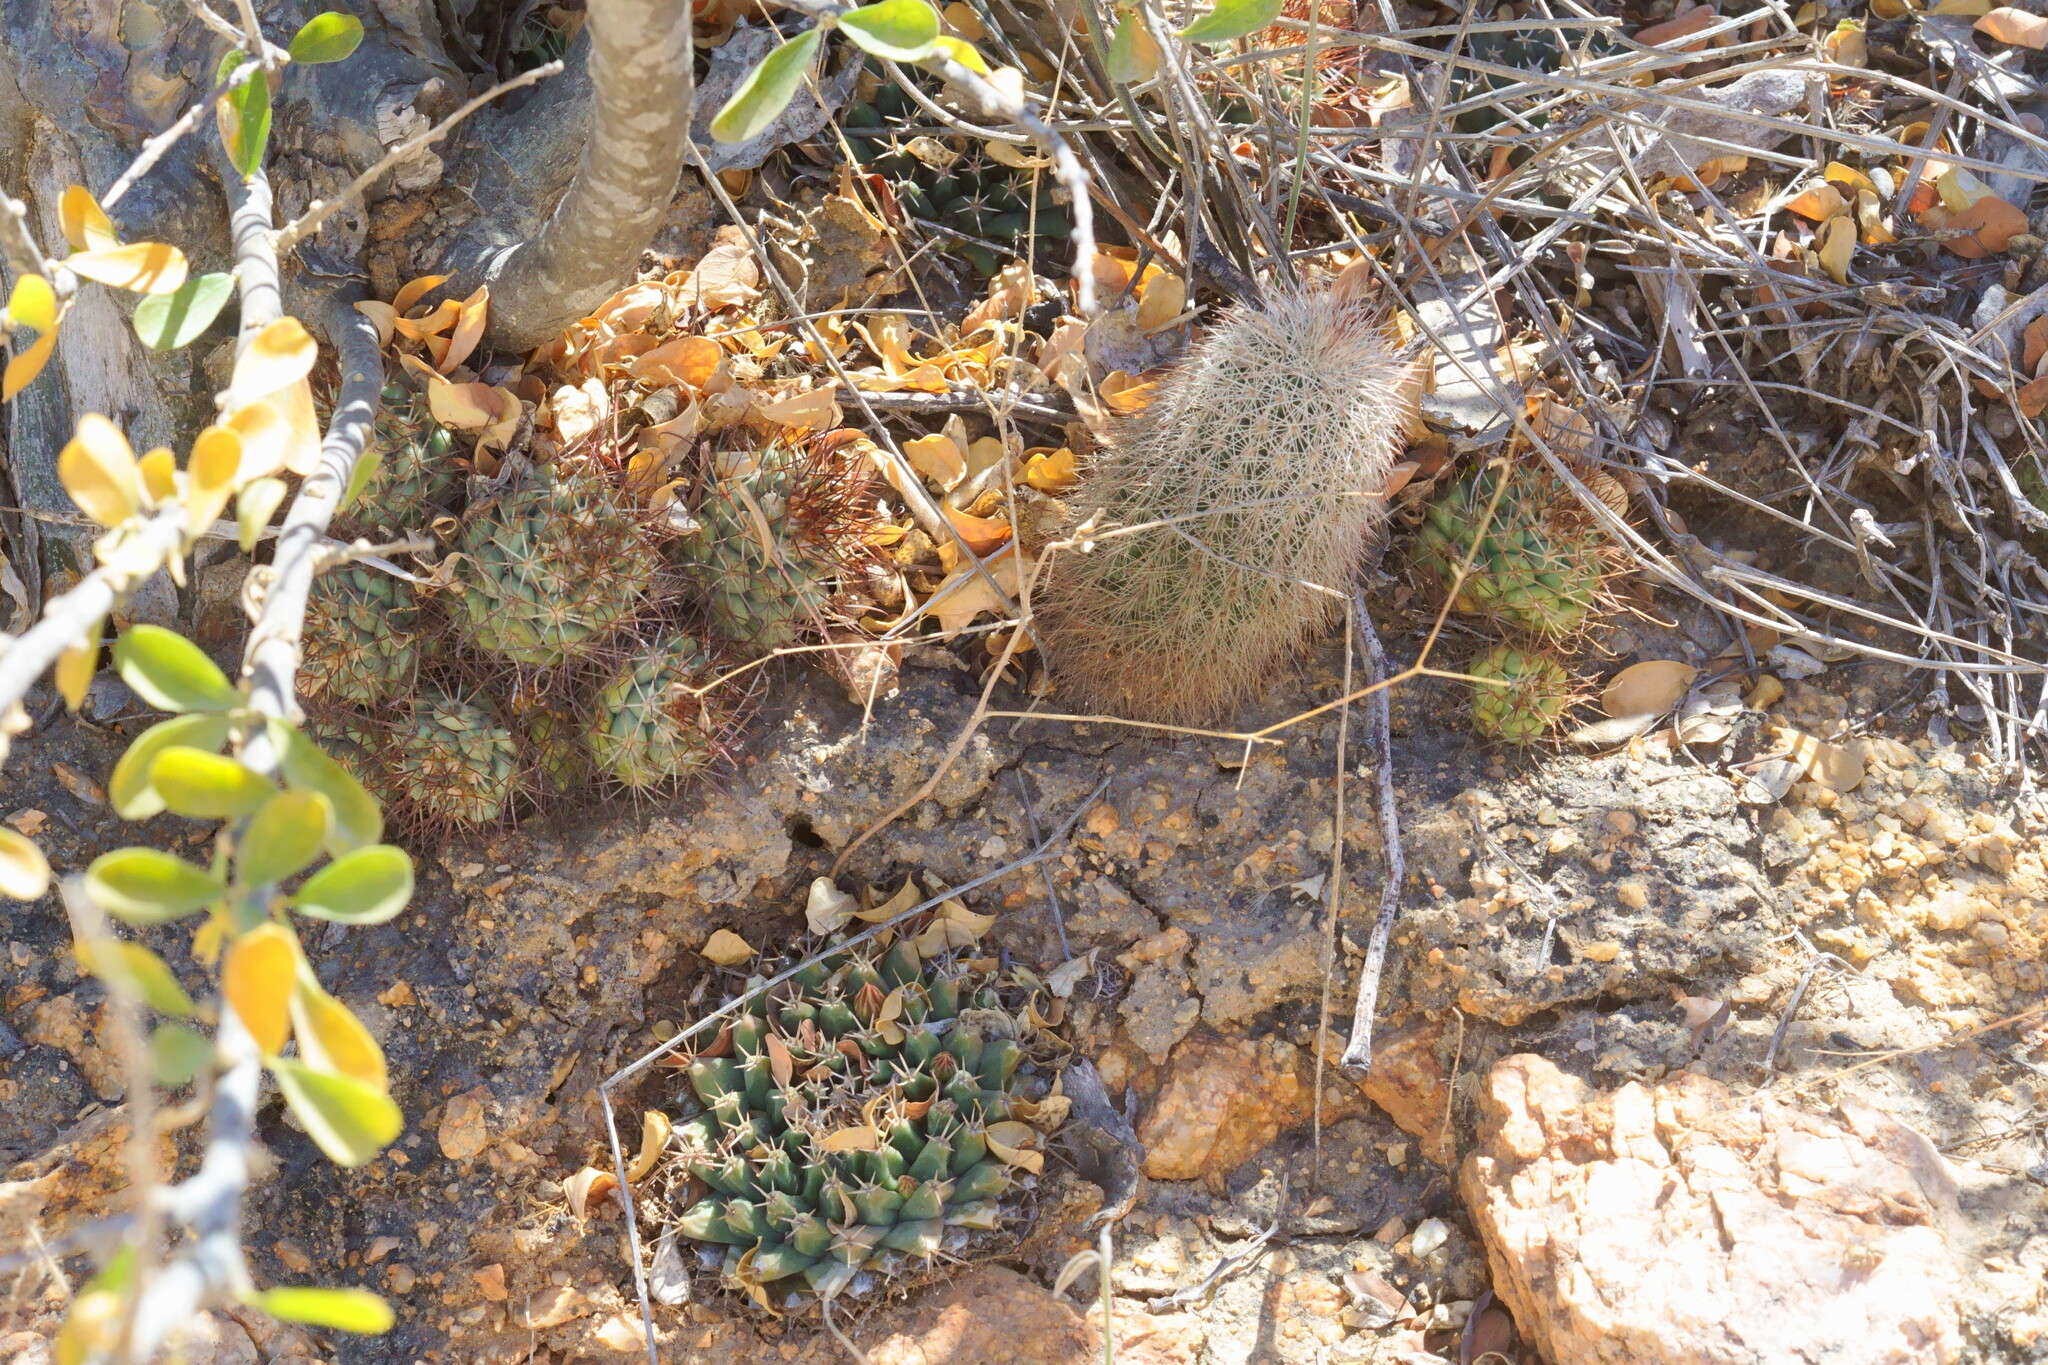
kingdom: Plantae
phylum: Tracheophyta
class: Magnoliopsida
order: Caryophyllales
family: Cactaceae
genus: Echinocereus
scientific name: Echinocereus sciurus
